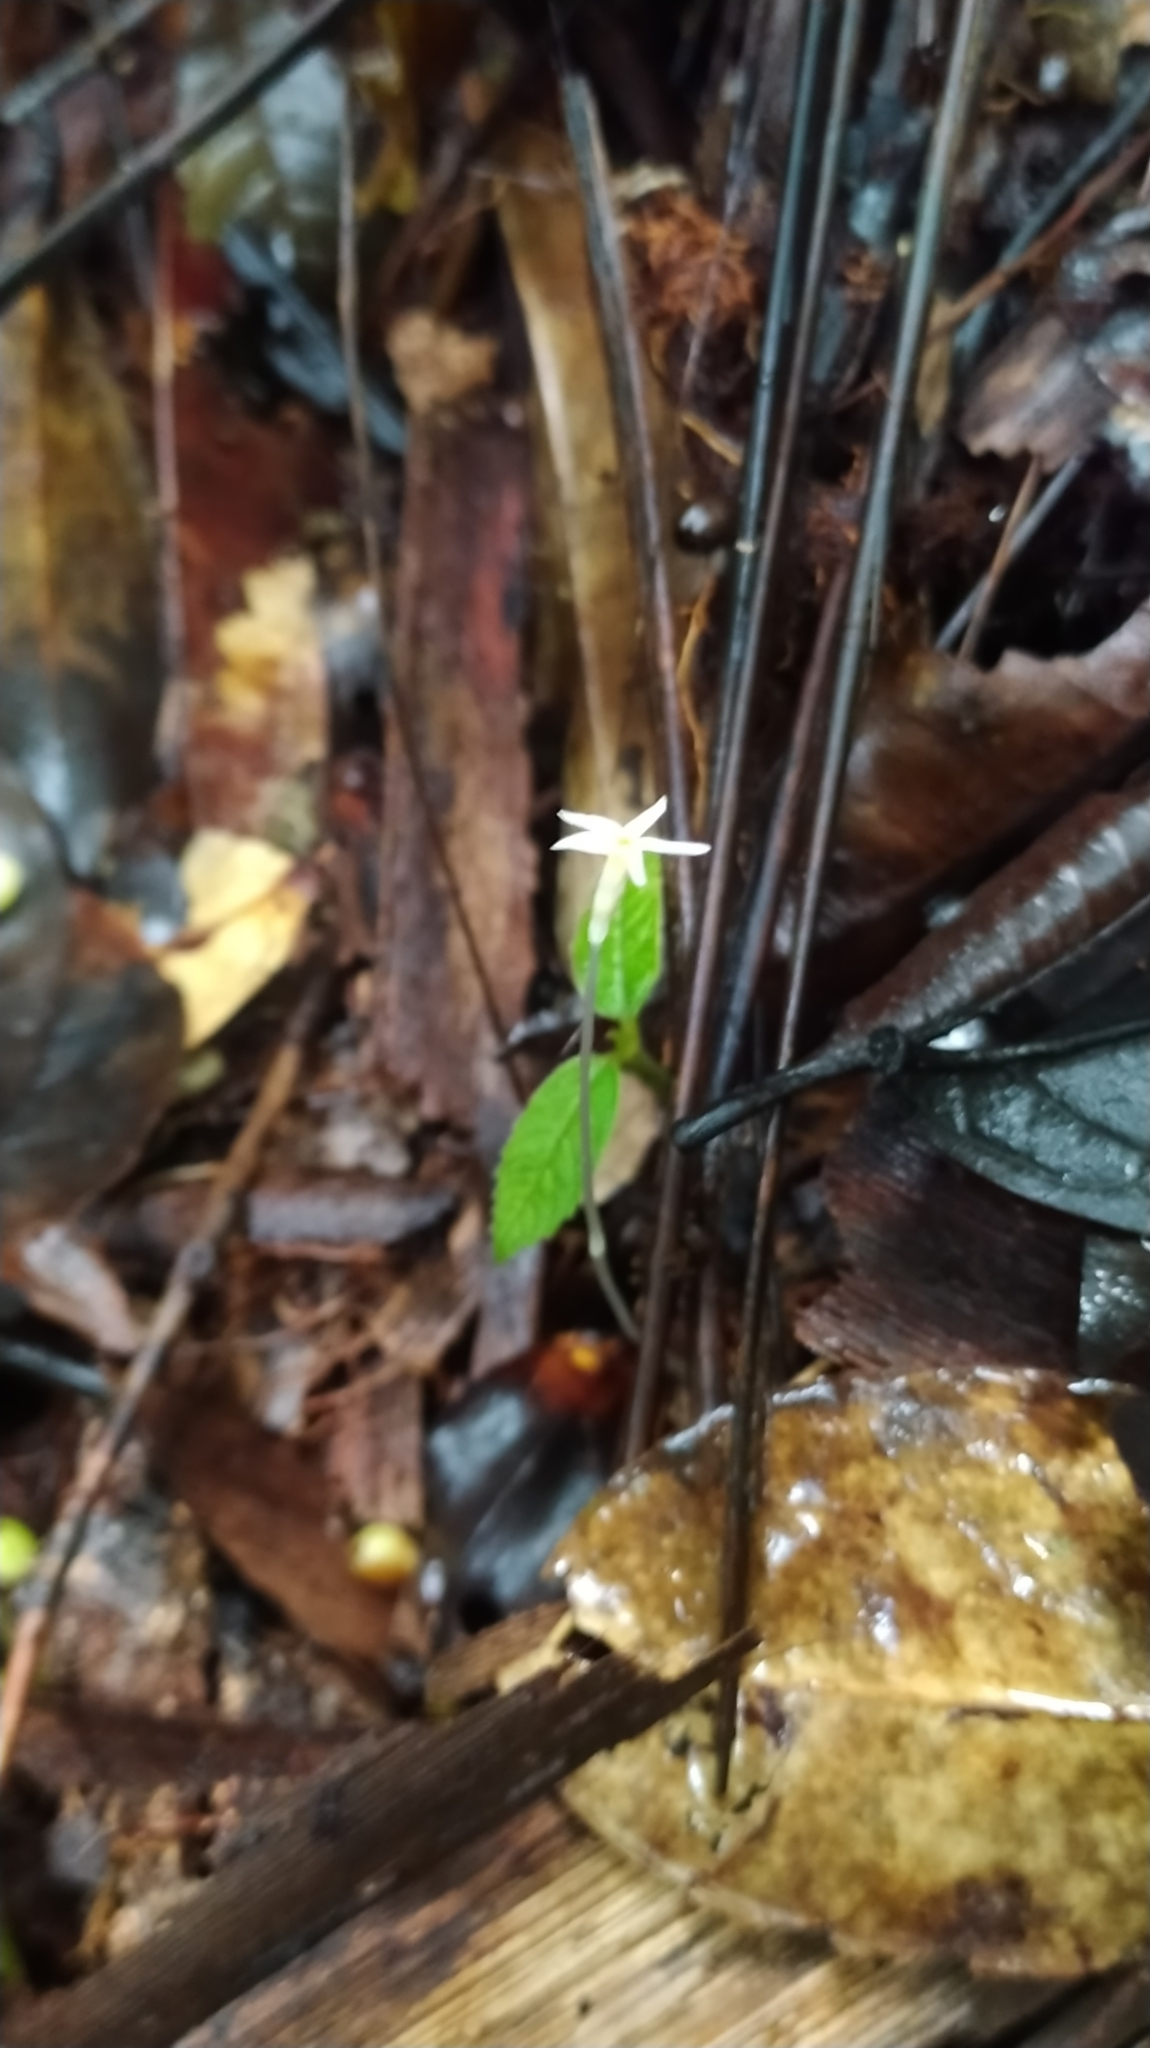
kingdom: Plantae
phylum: Tracheophyta
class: Magnoliopsida
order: Gentianales
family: Gentianaceae
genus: Voyria
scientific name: Voyria alvesiana
